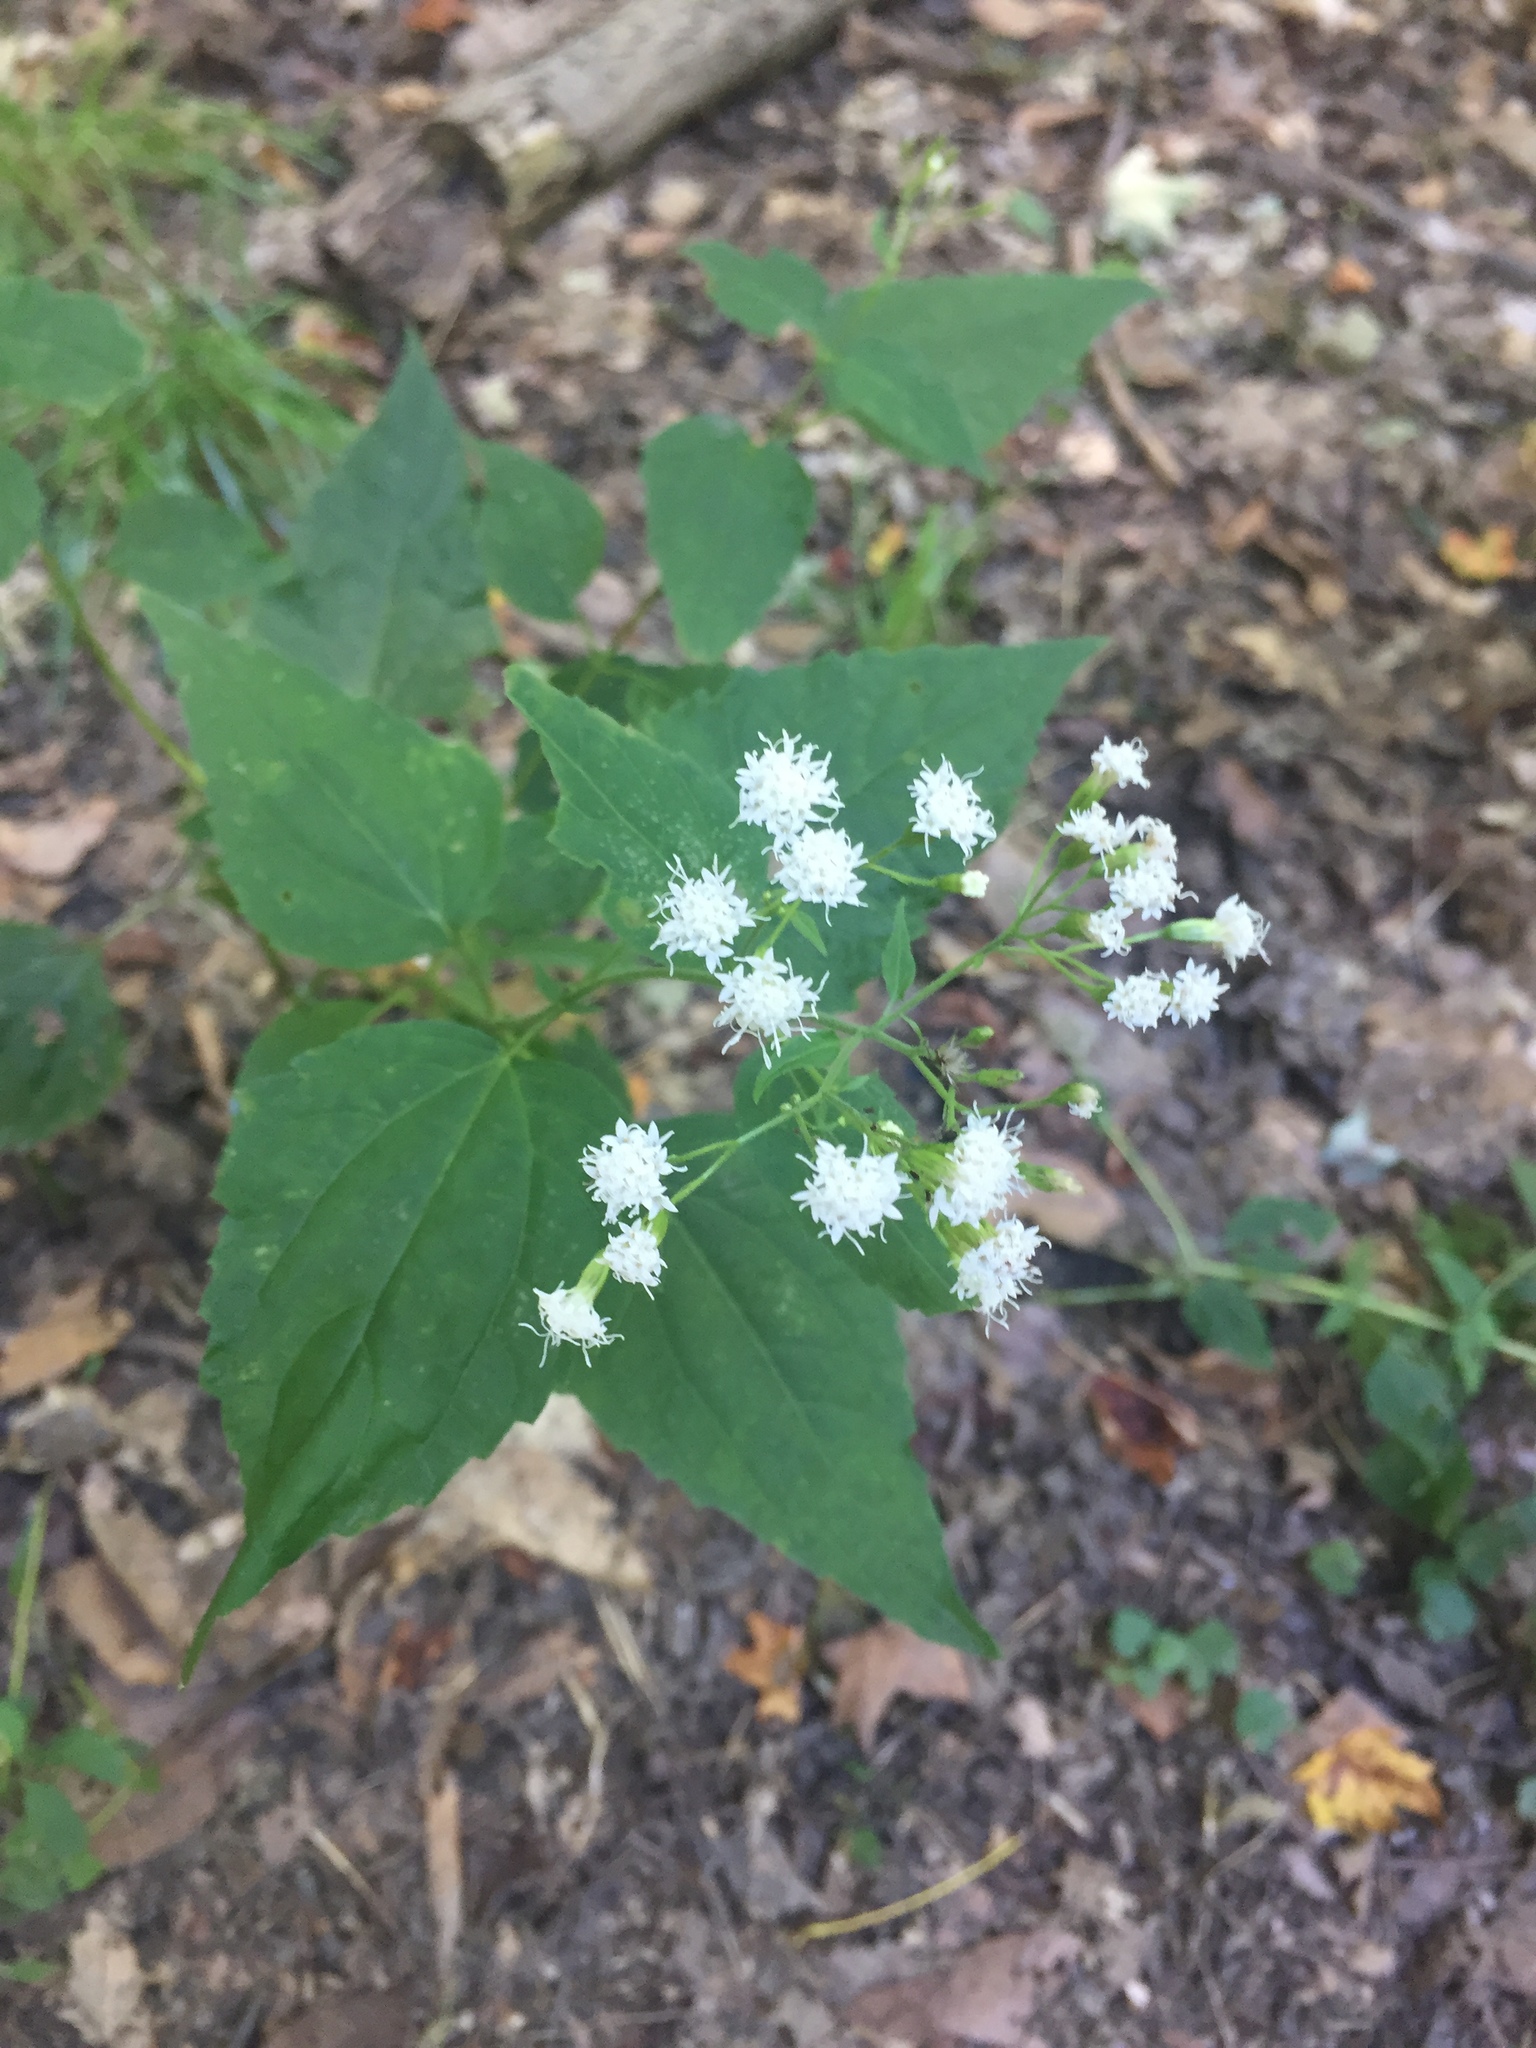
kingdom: Plantae
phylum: Tracheophyta
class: Magnoliopsida
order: Asterales
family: Asteraceae
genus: Ageratina
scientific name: Ageratina altissima
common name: White snakeroot
